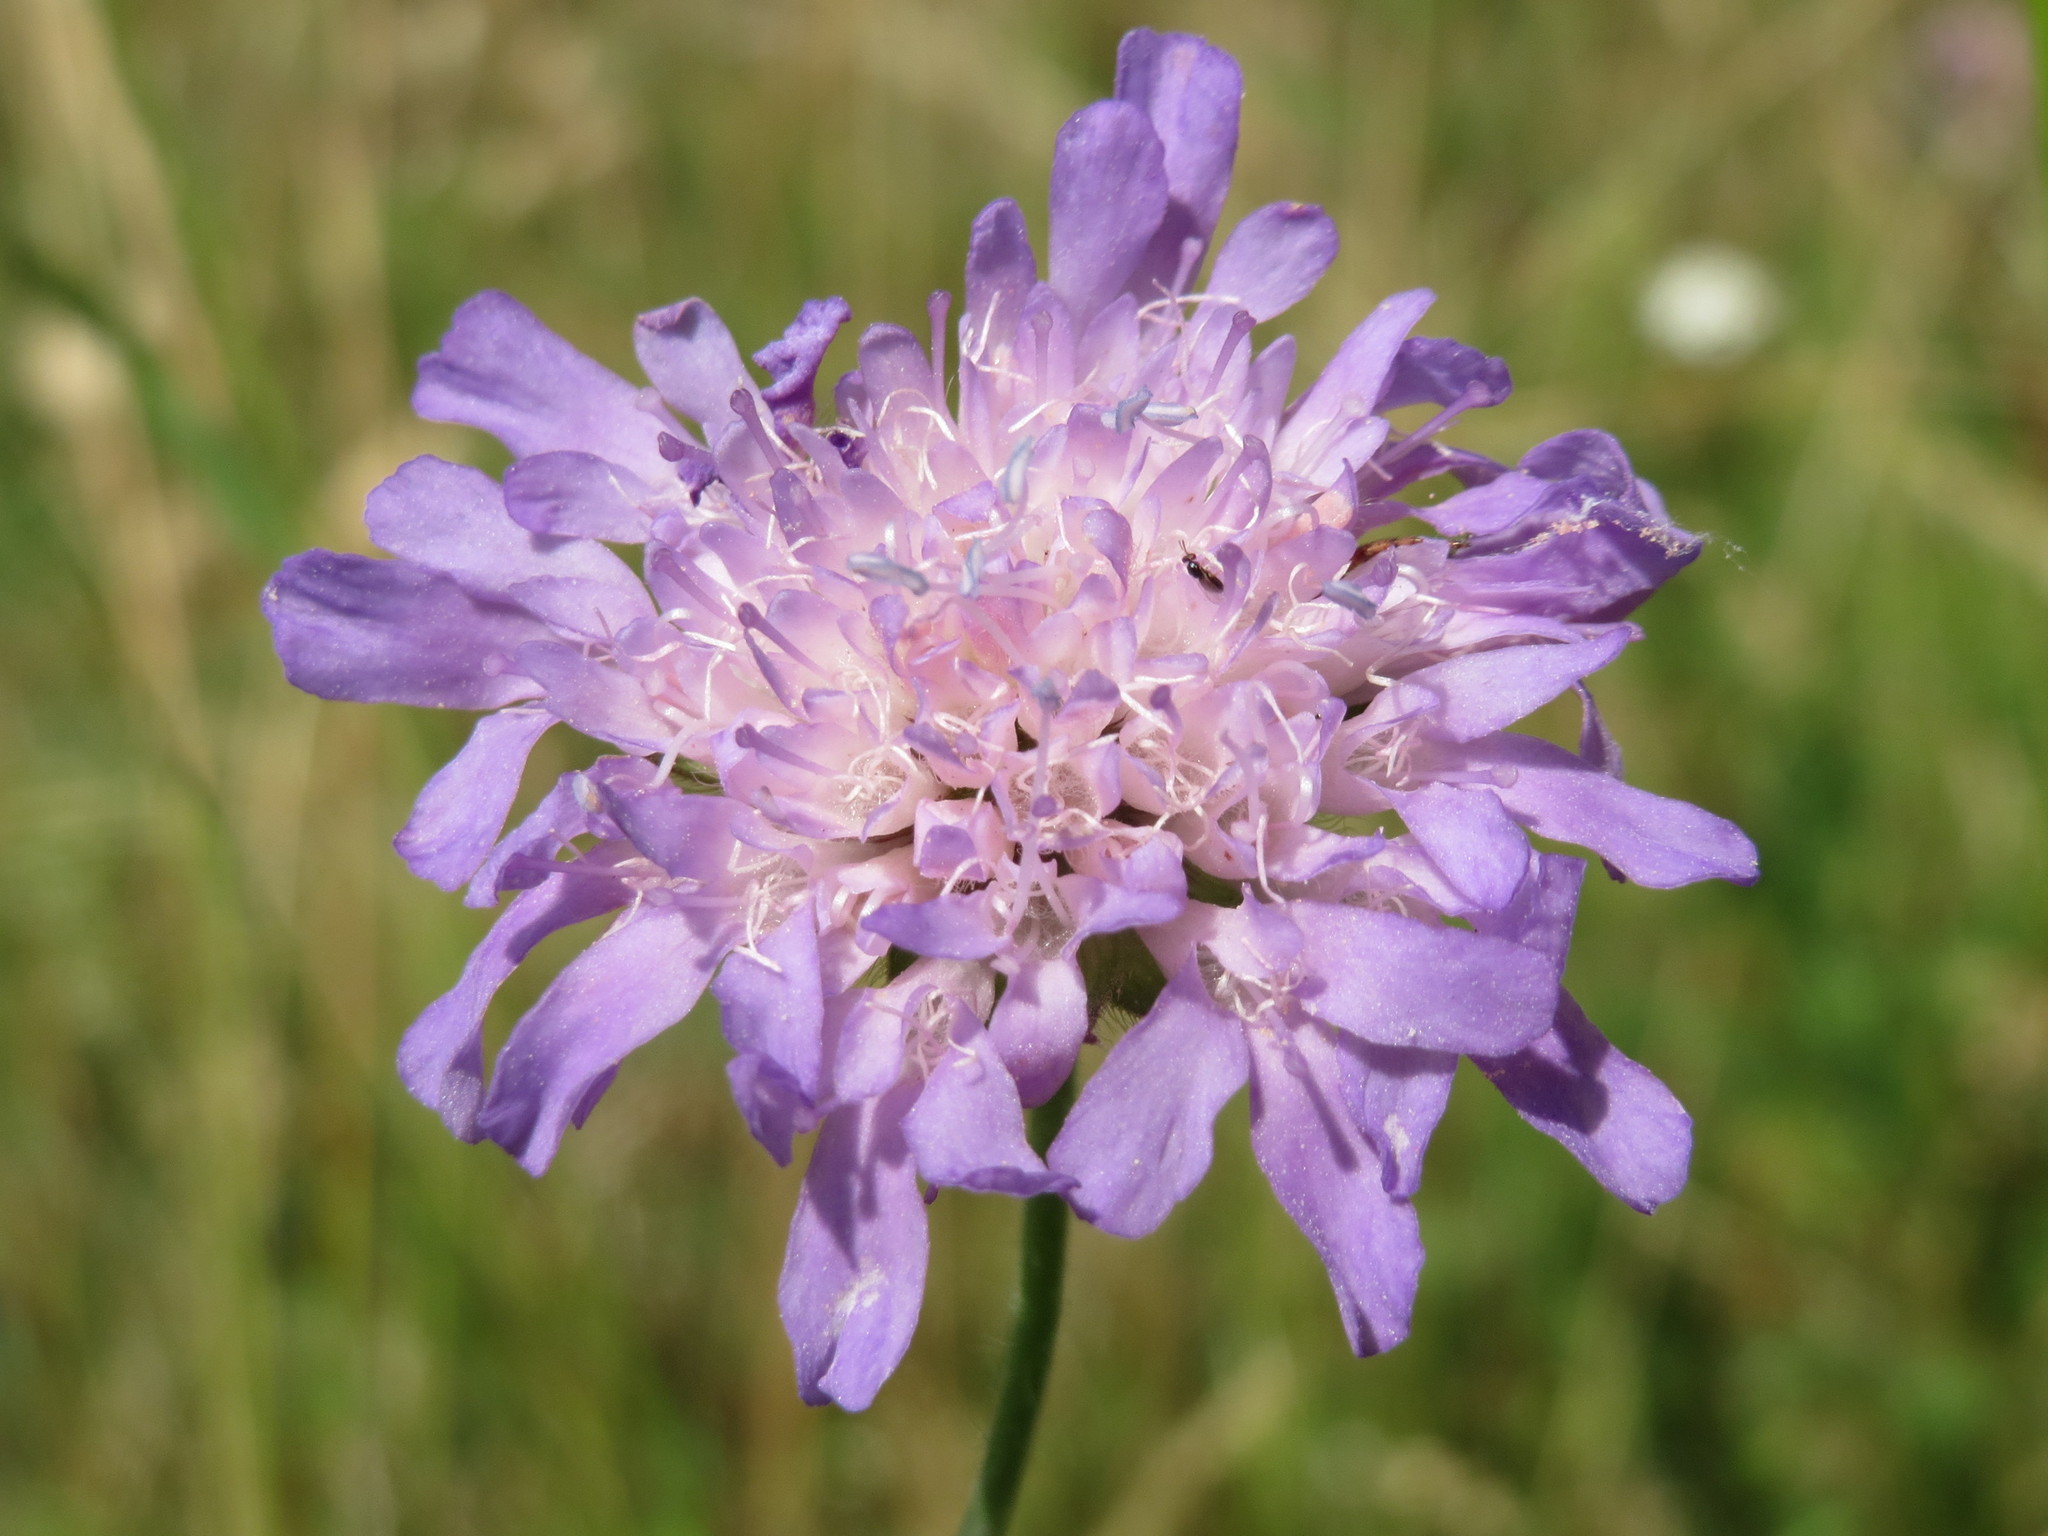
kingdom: Plantae
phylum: Tracheophyta
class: Magnoliopsida
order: Dipsacales
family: Caprifoliaceae
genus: Knautia
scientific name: Knautia arvensis
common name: Field scabiosa
